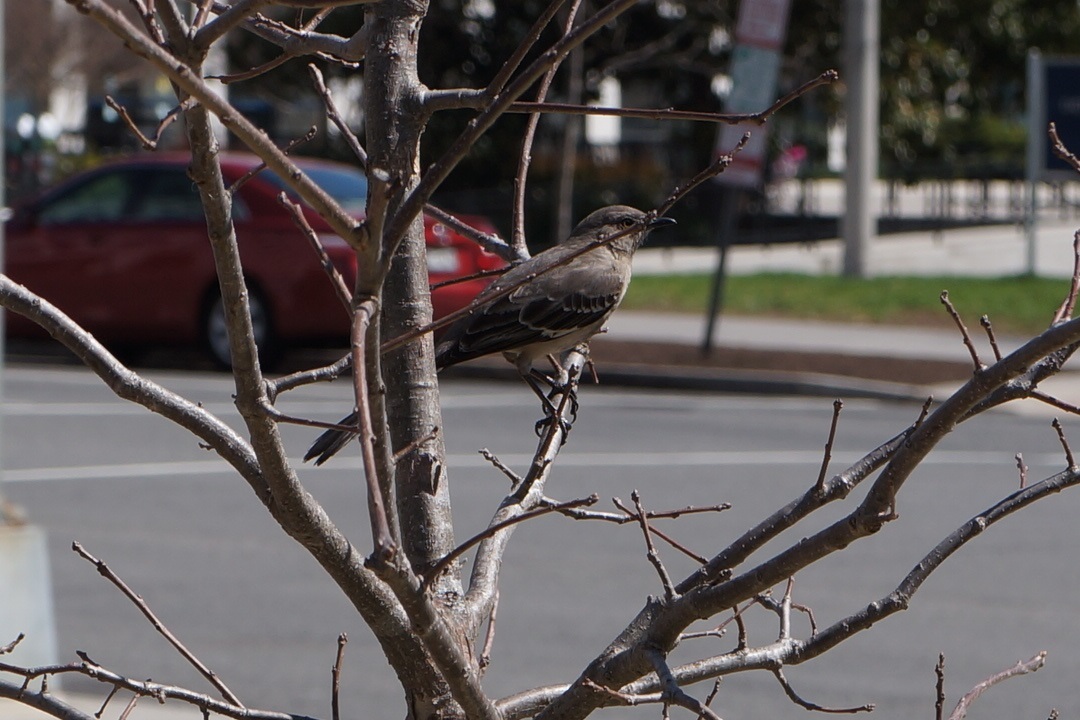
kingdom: Animalia
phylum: Chordata
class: Aves
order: Passeriformes
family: Mimidae
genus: Mimus
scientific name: Mimus polyglottos
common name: Northern mockingbird
